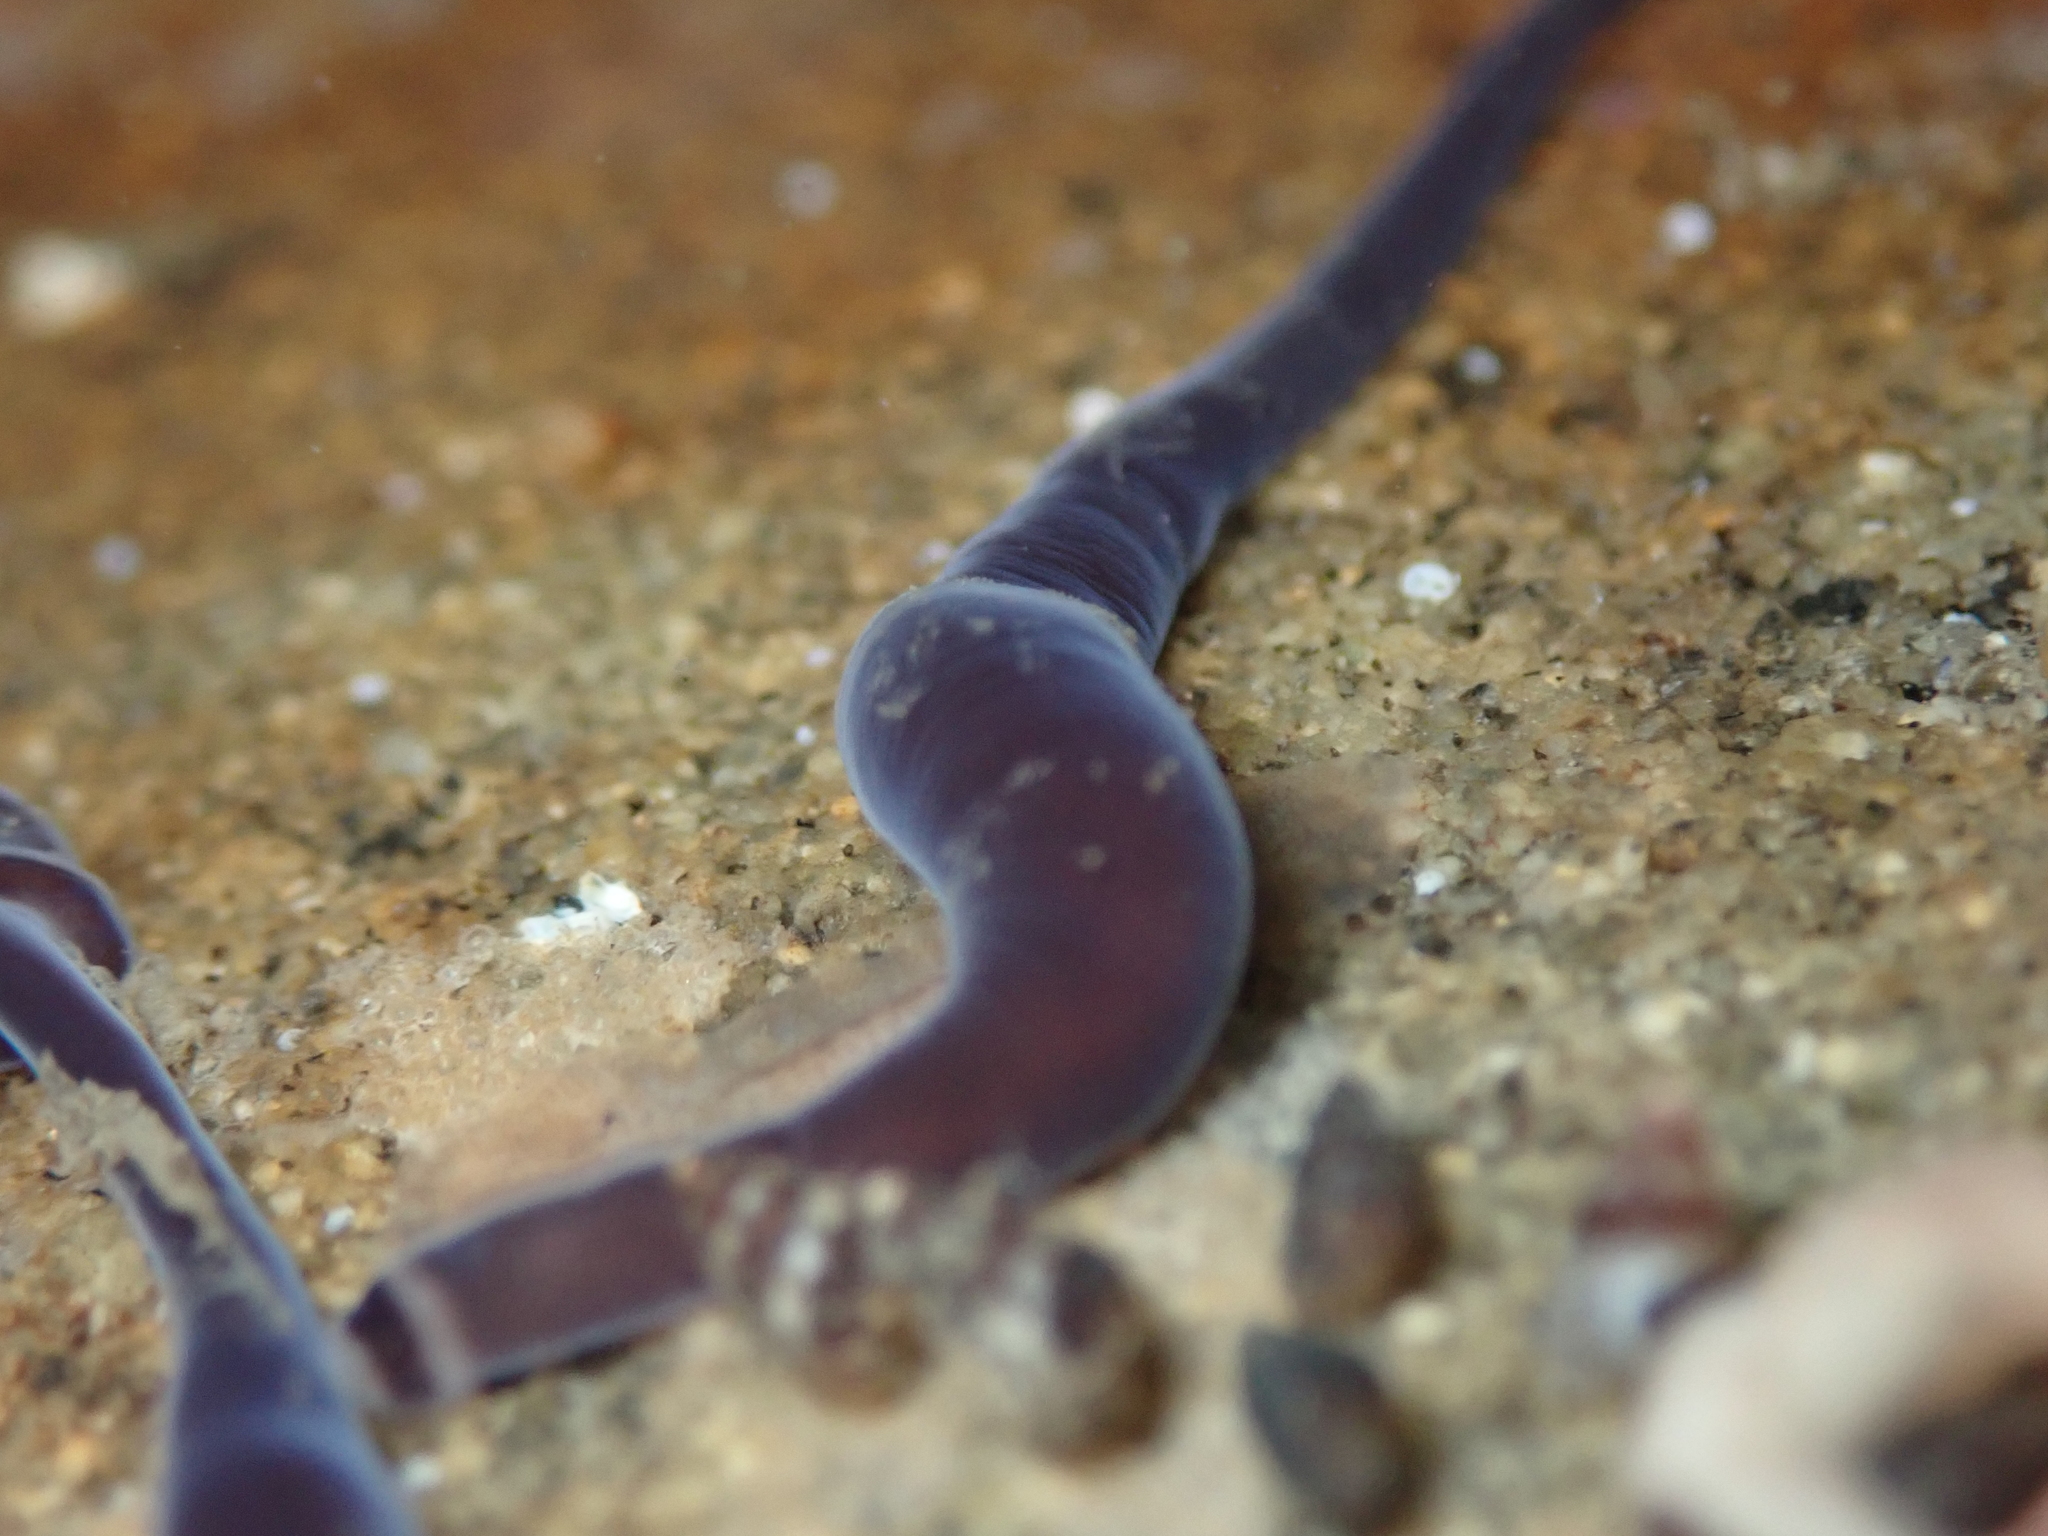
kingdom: Animalia
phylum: Nemertea
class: Hoplonemertea
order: Monostilifera
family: Neesiidae
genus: Noteonemertes
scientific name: Noteonemertes novaezealandiae
